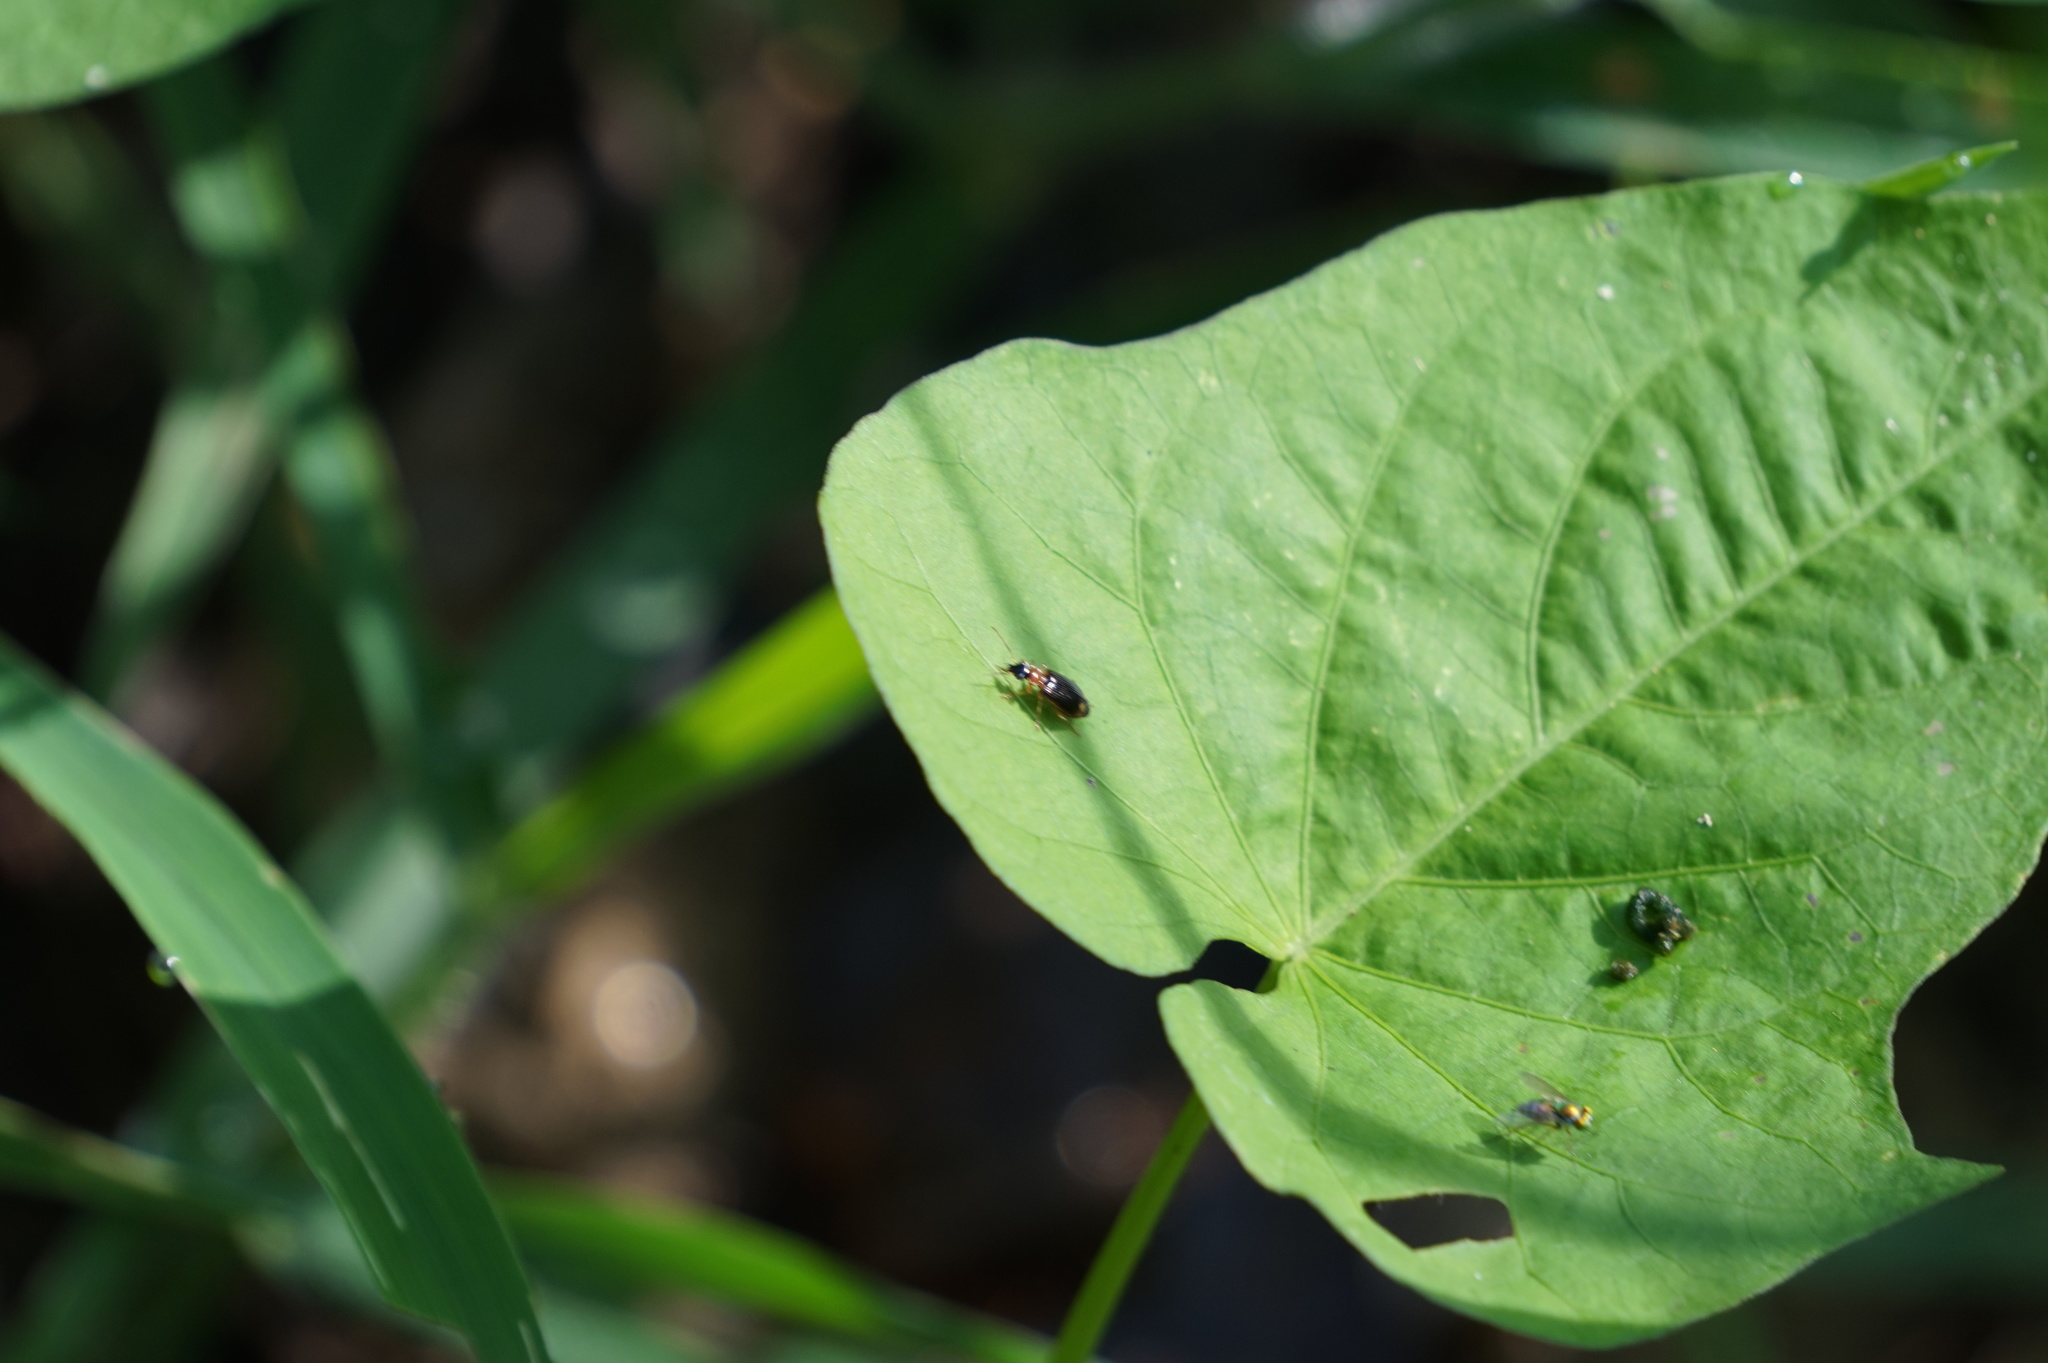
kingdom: Animalia
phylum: Arthropoda
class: Insecta
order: Coleoptera
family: Carabidae
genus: Lebia
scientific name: Lebia analis
